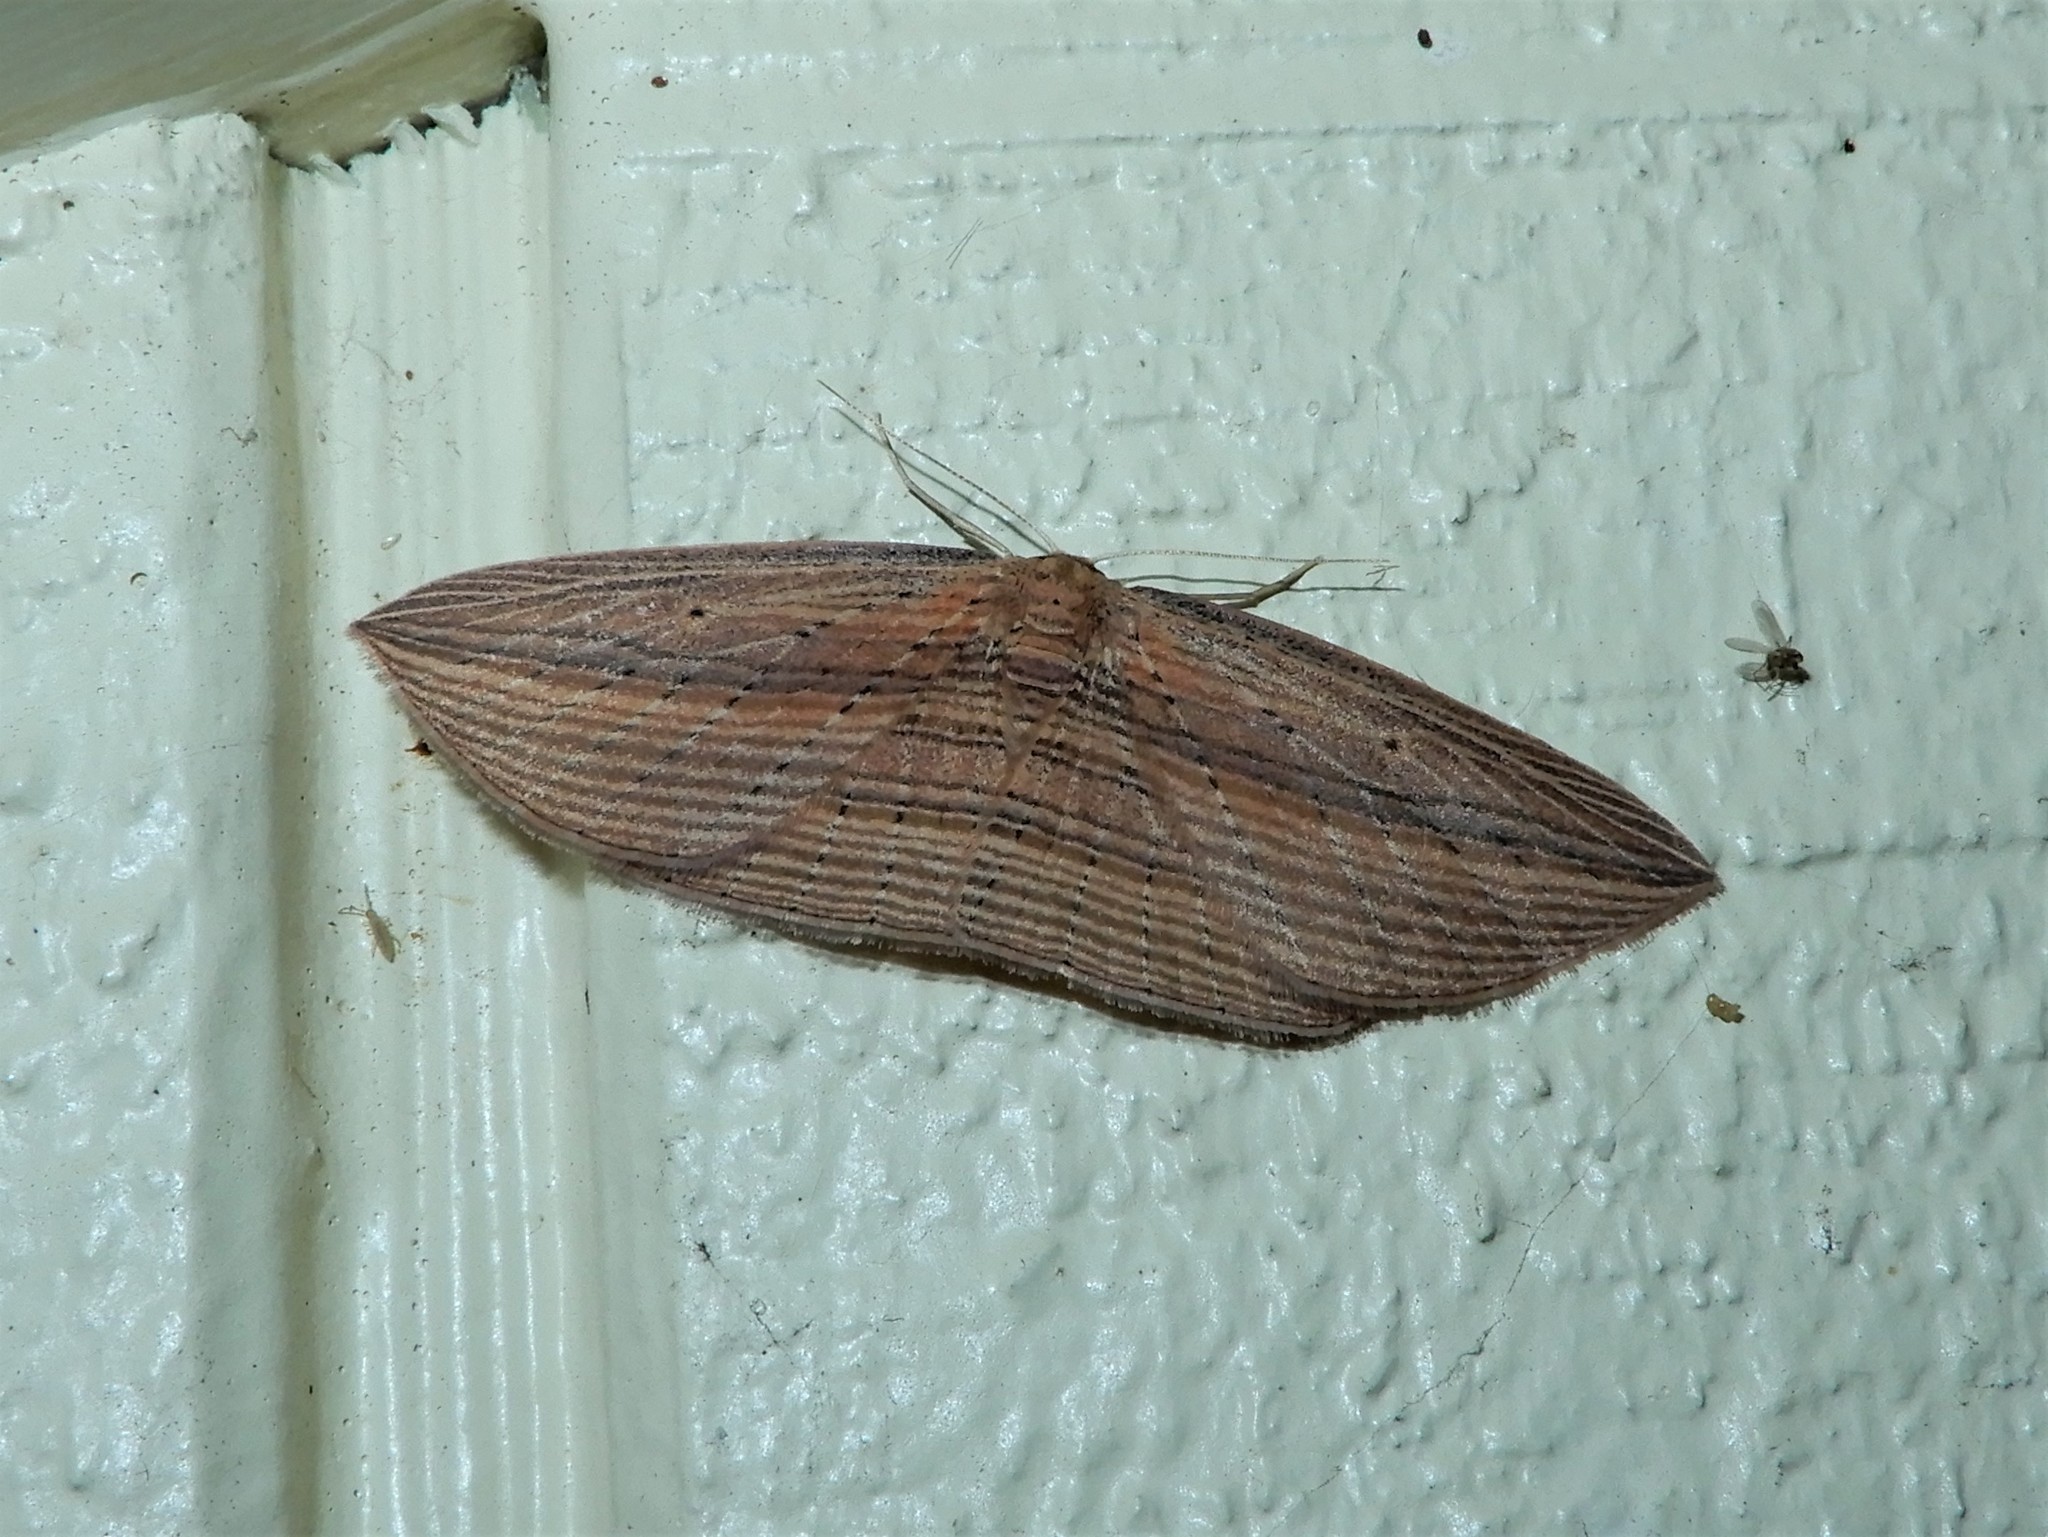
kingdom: Animalia
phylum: Arthropoda
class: Insecta
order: Lepidoptera
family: Geometridae
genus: Epiphryne
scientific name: Epiphryne verriculata
